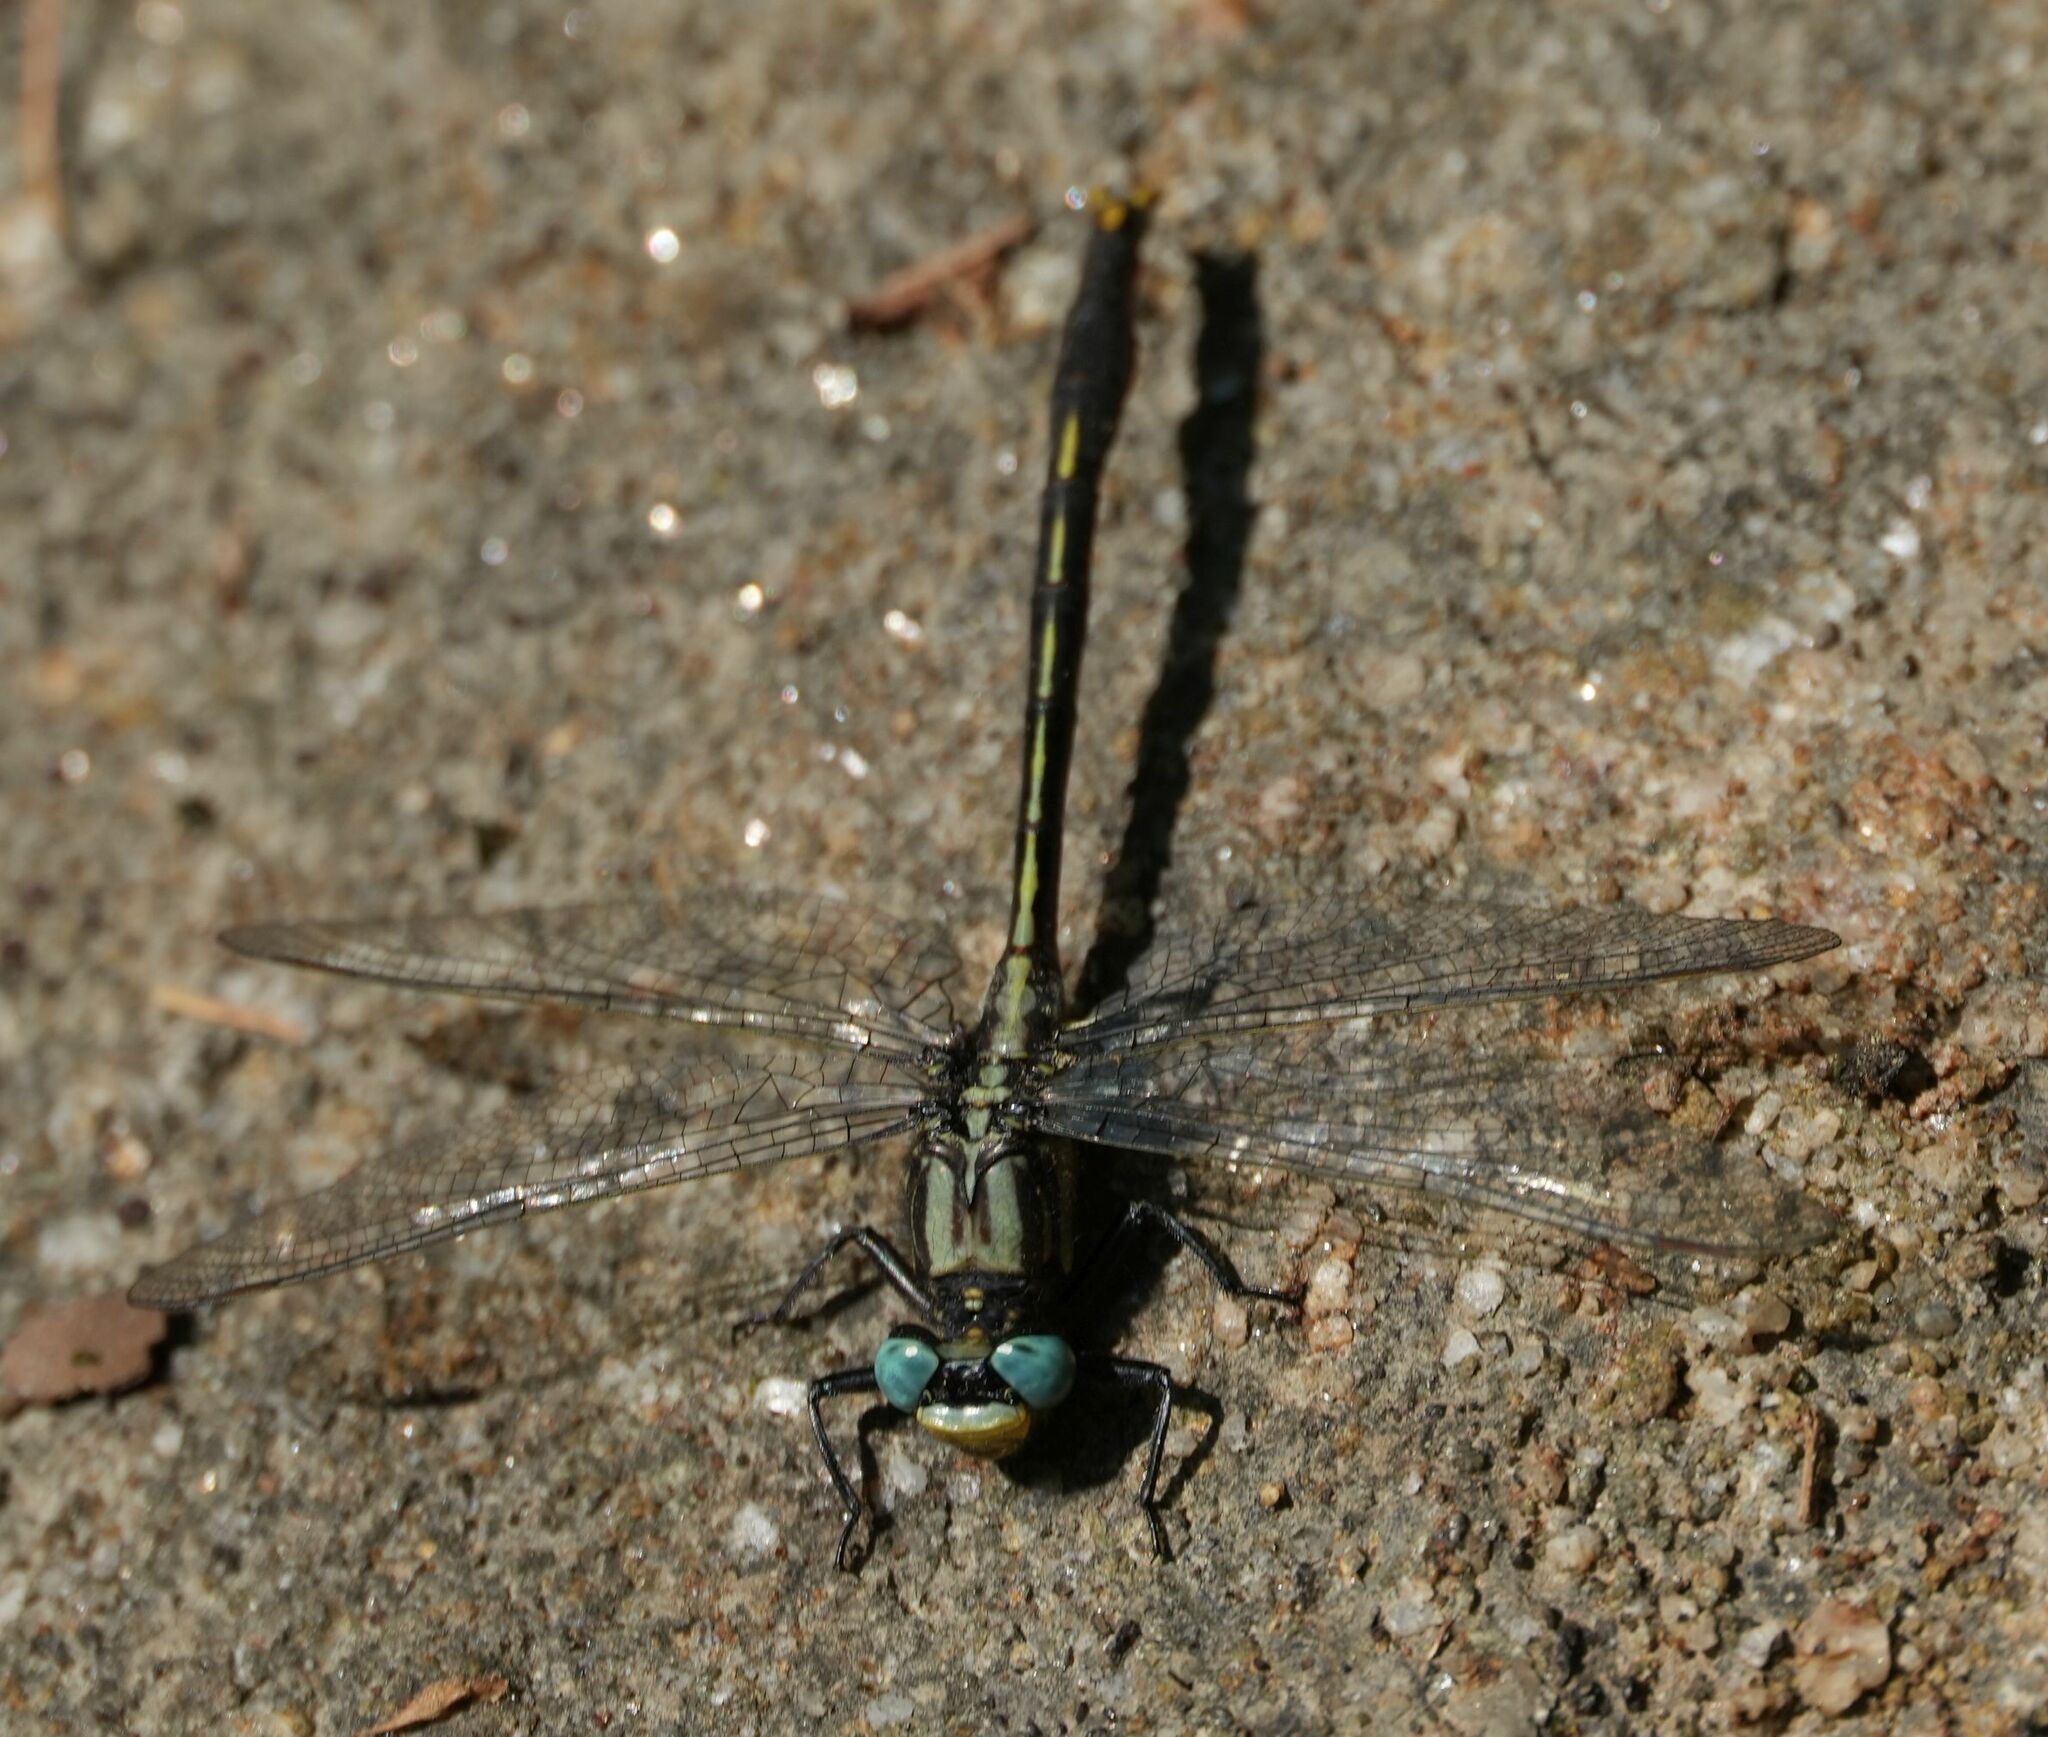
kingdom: Animalia
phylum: Arthropoda
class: Insecta
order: Odonata
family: Gomphidae
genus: Arigomphus
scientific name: Arigomphus furcifer
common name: Lilypad clubtail
